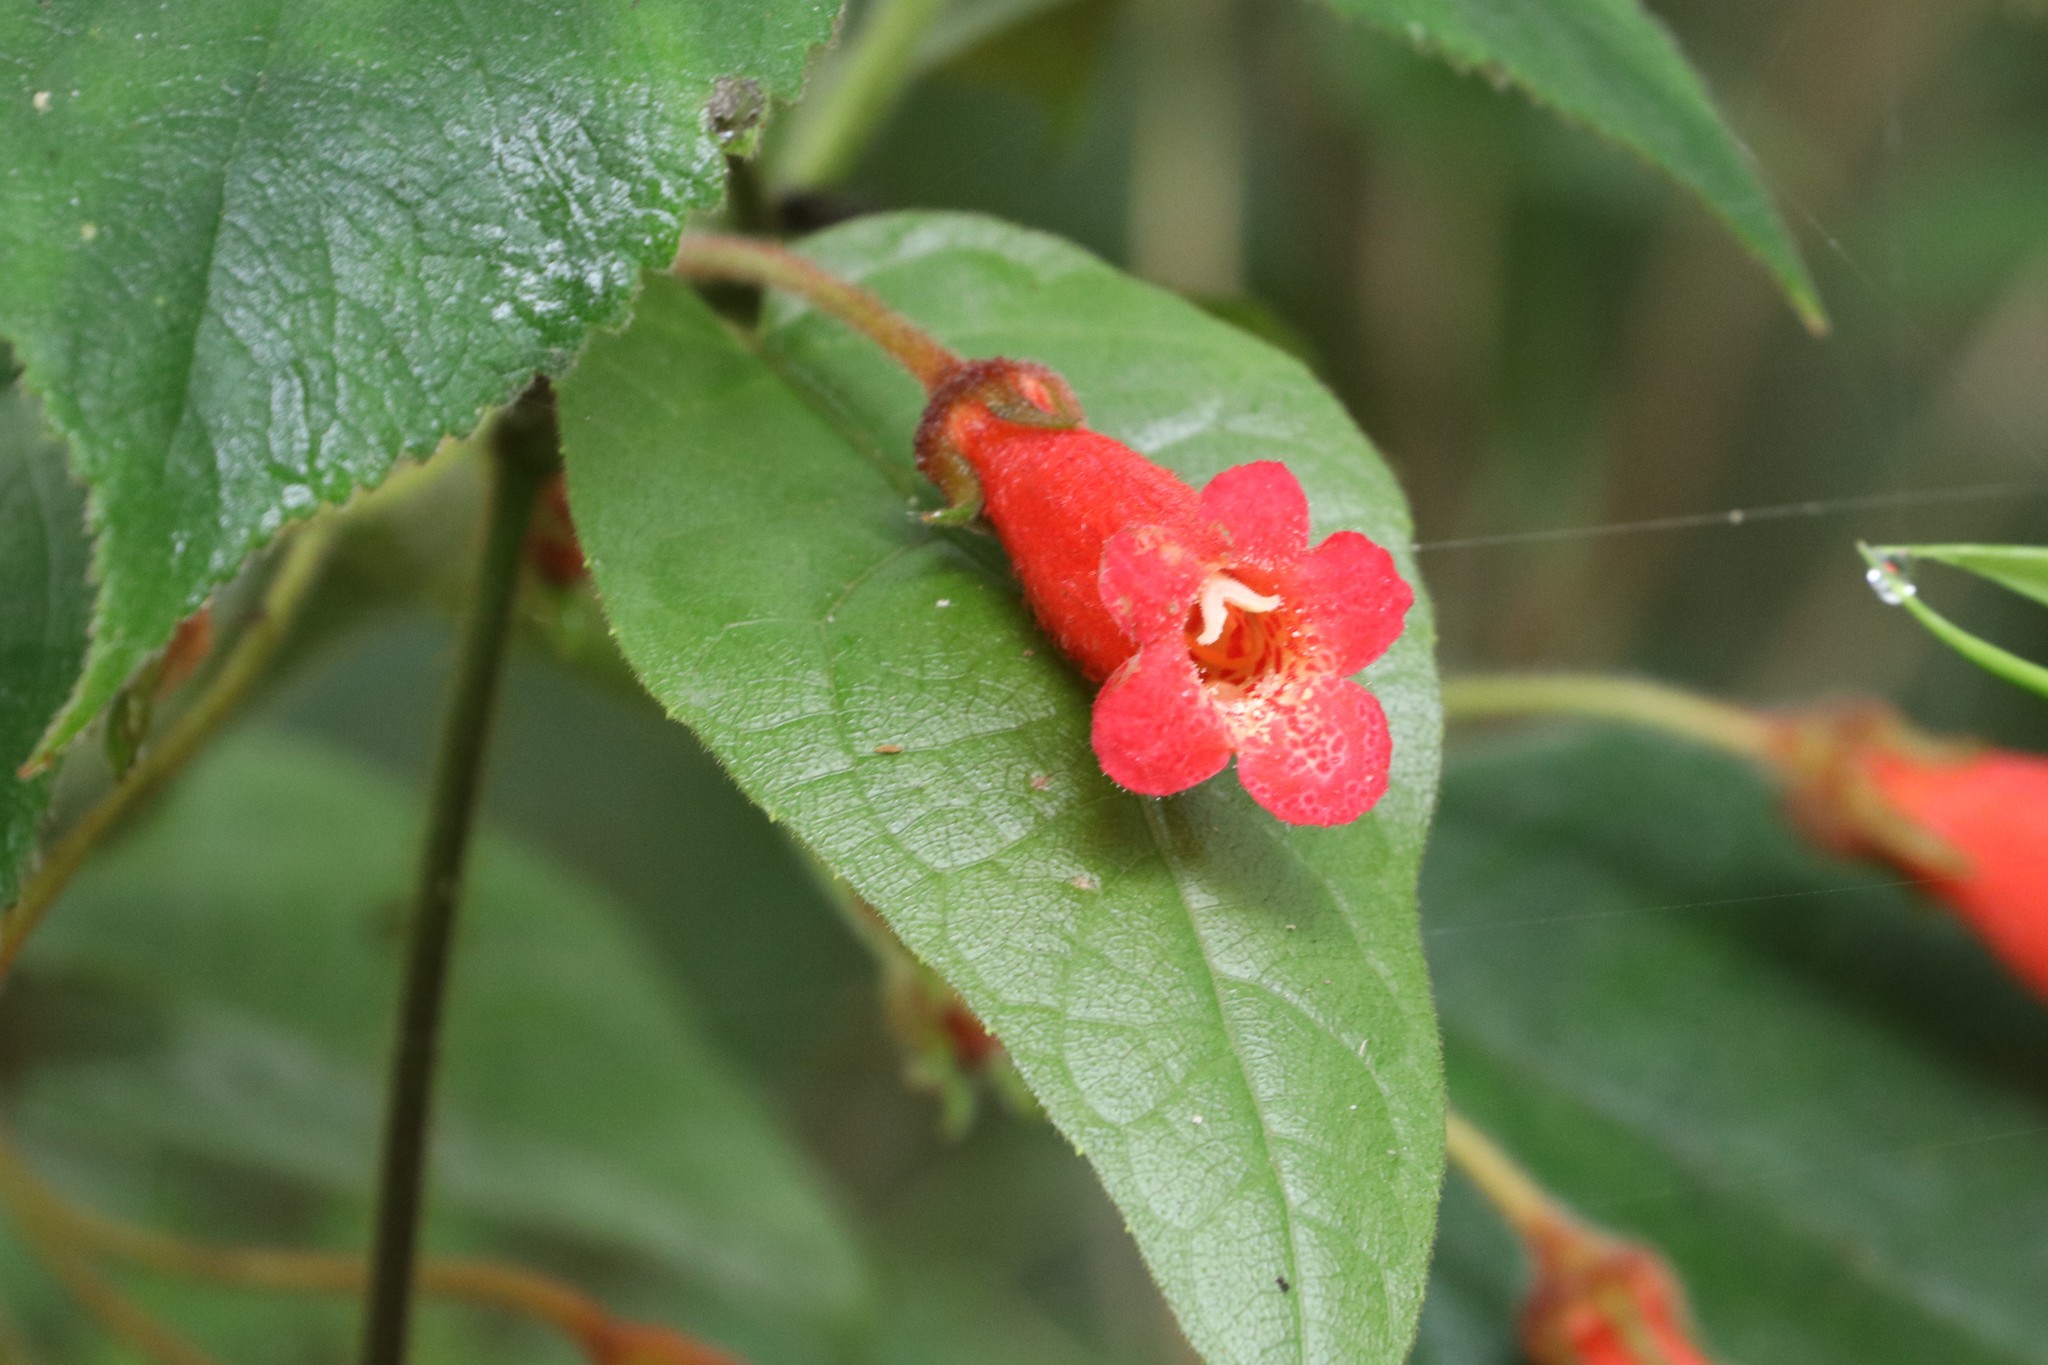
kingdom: Plantae
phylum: Tracheophyta
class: Magnoliopsida
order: Lamiales
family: Gesneriaceae
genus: Kohleria
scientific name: Kohleria hirsuta
